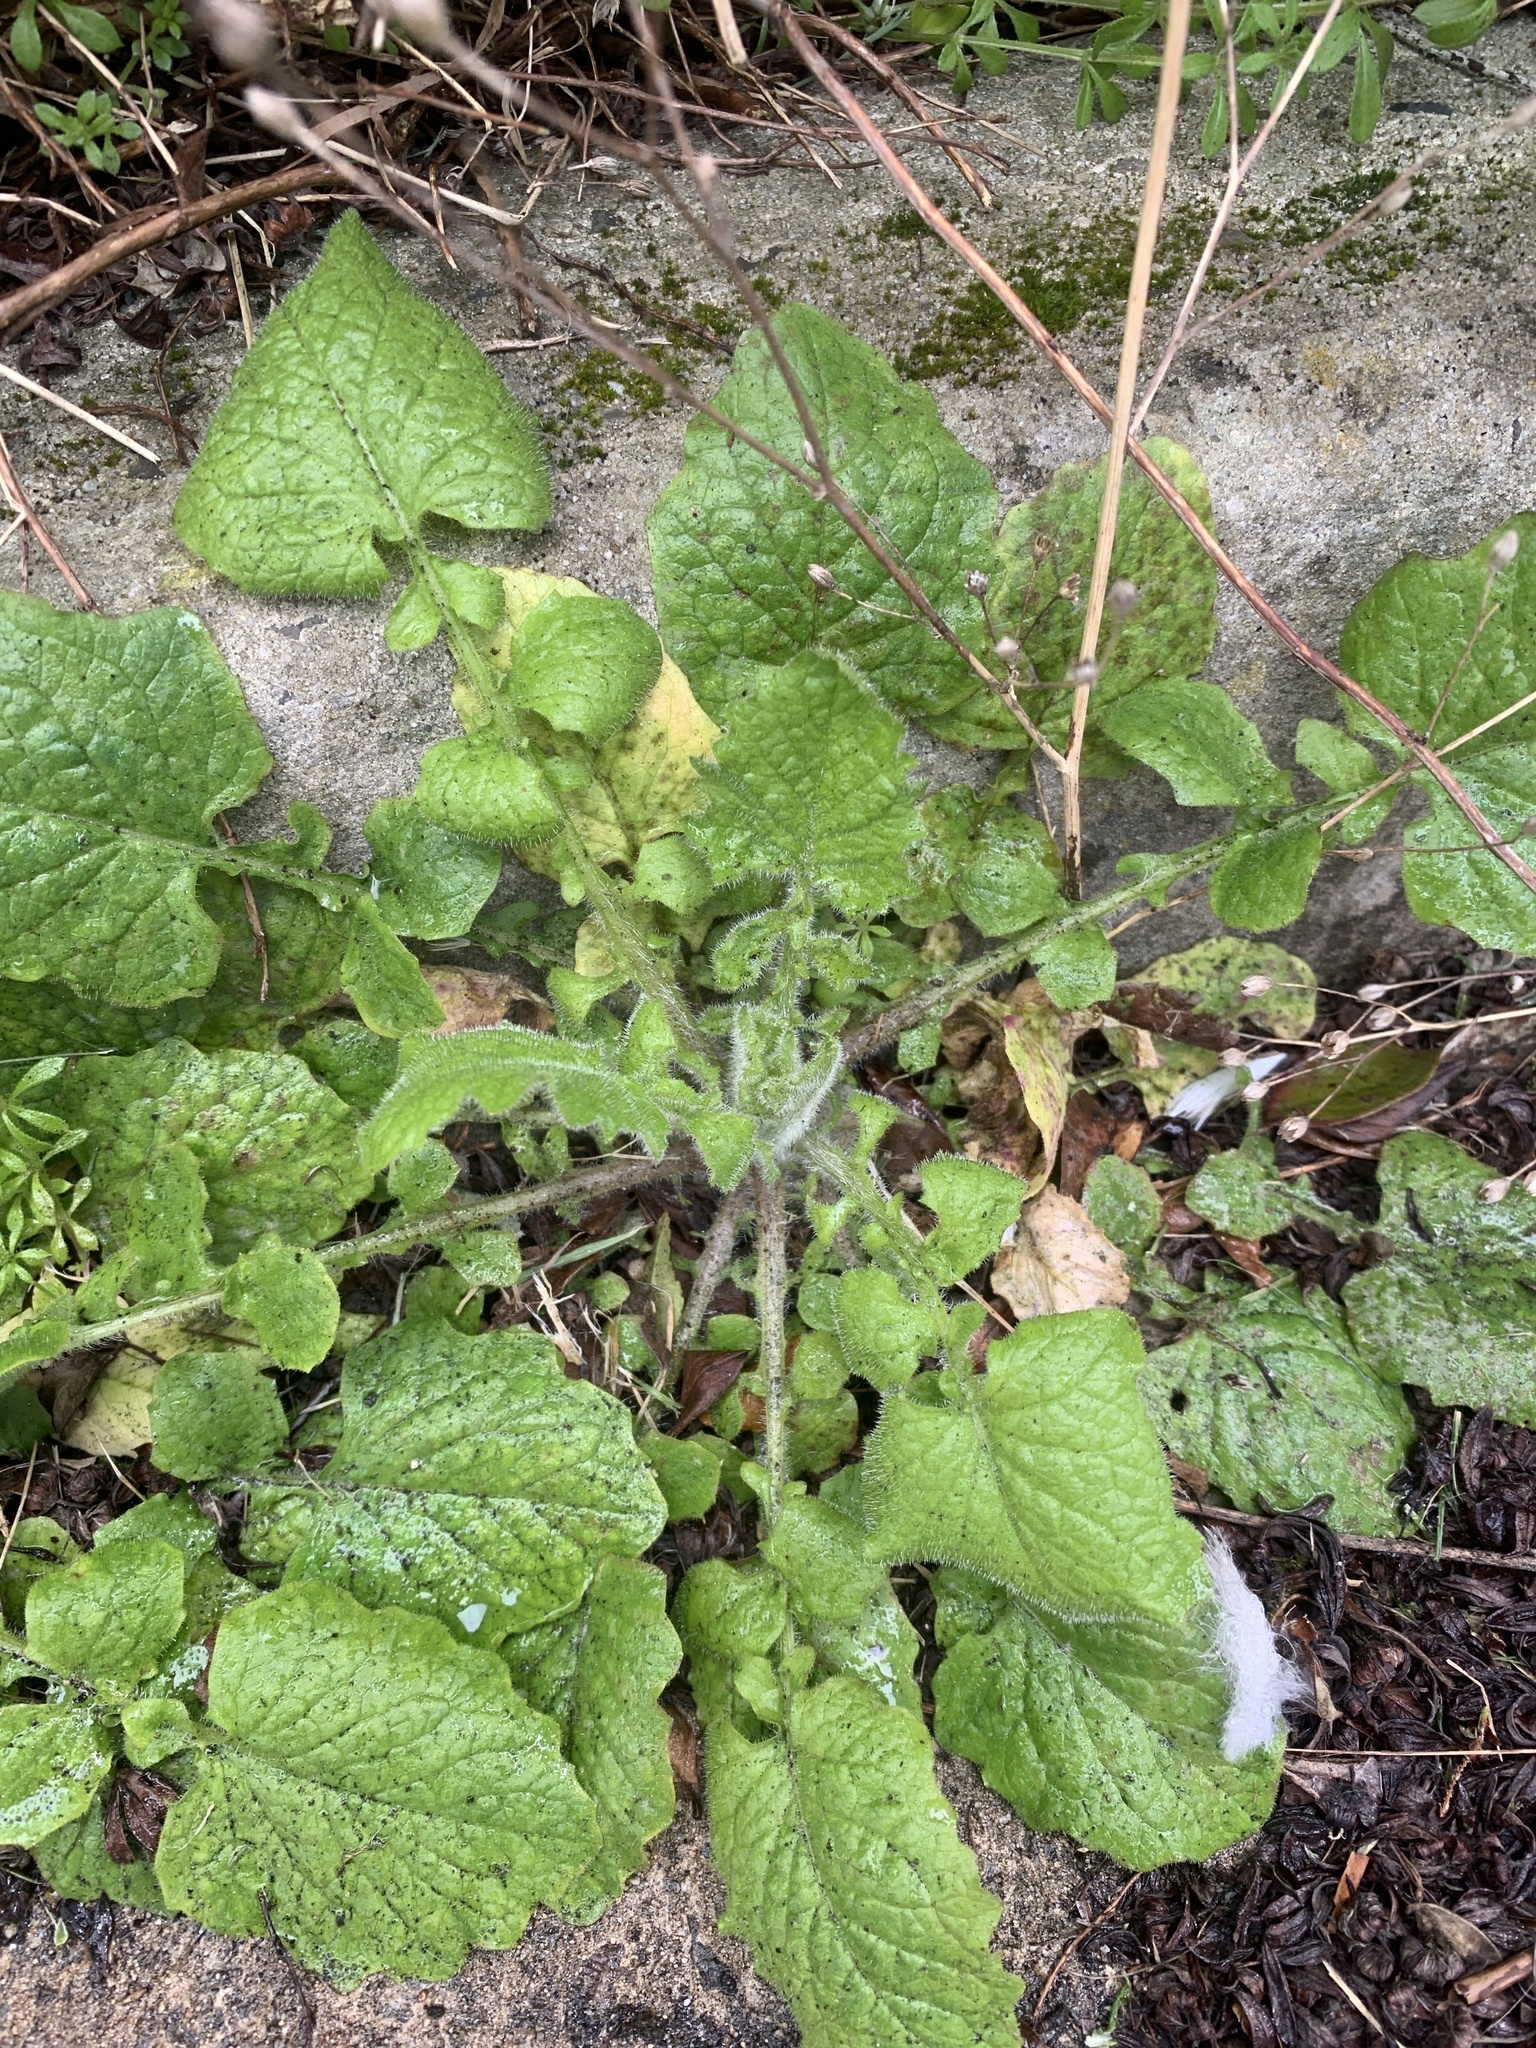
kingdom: Plantae
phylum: Tracheophyta
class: Magnoliopsida
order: Asterales
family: Asteraceae
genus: Lapsana
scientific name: Lapsana communis
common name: Nipplewort
